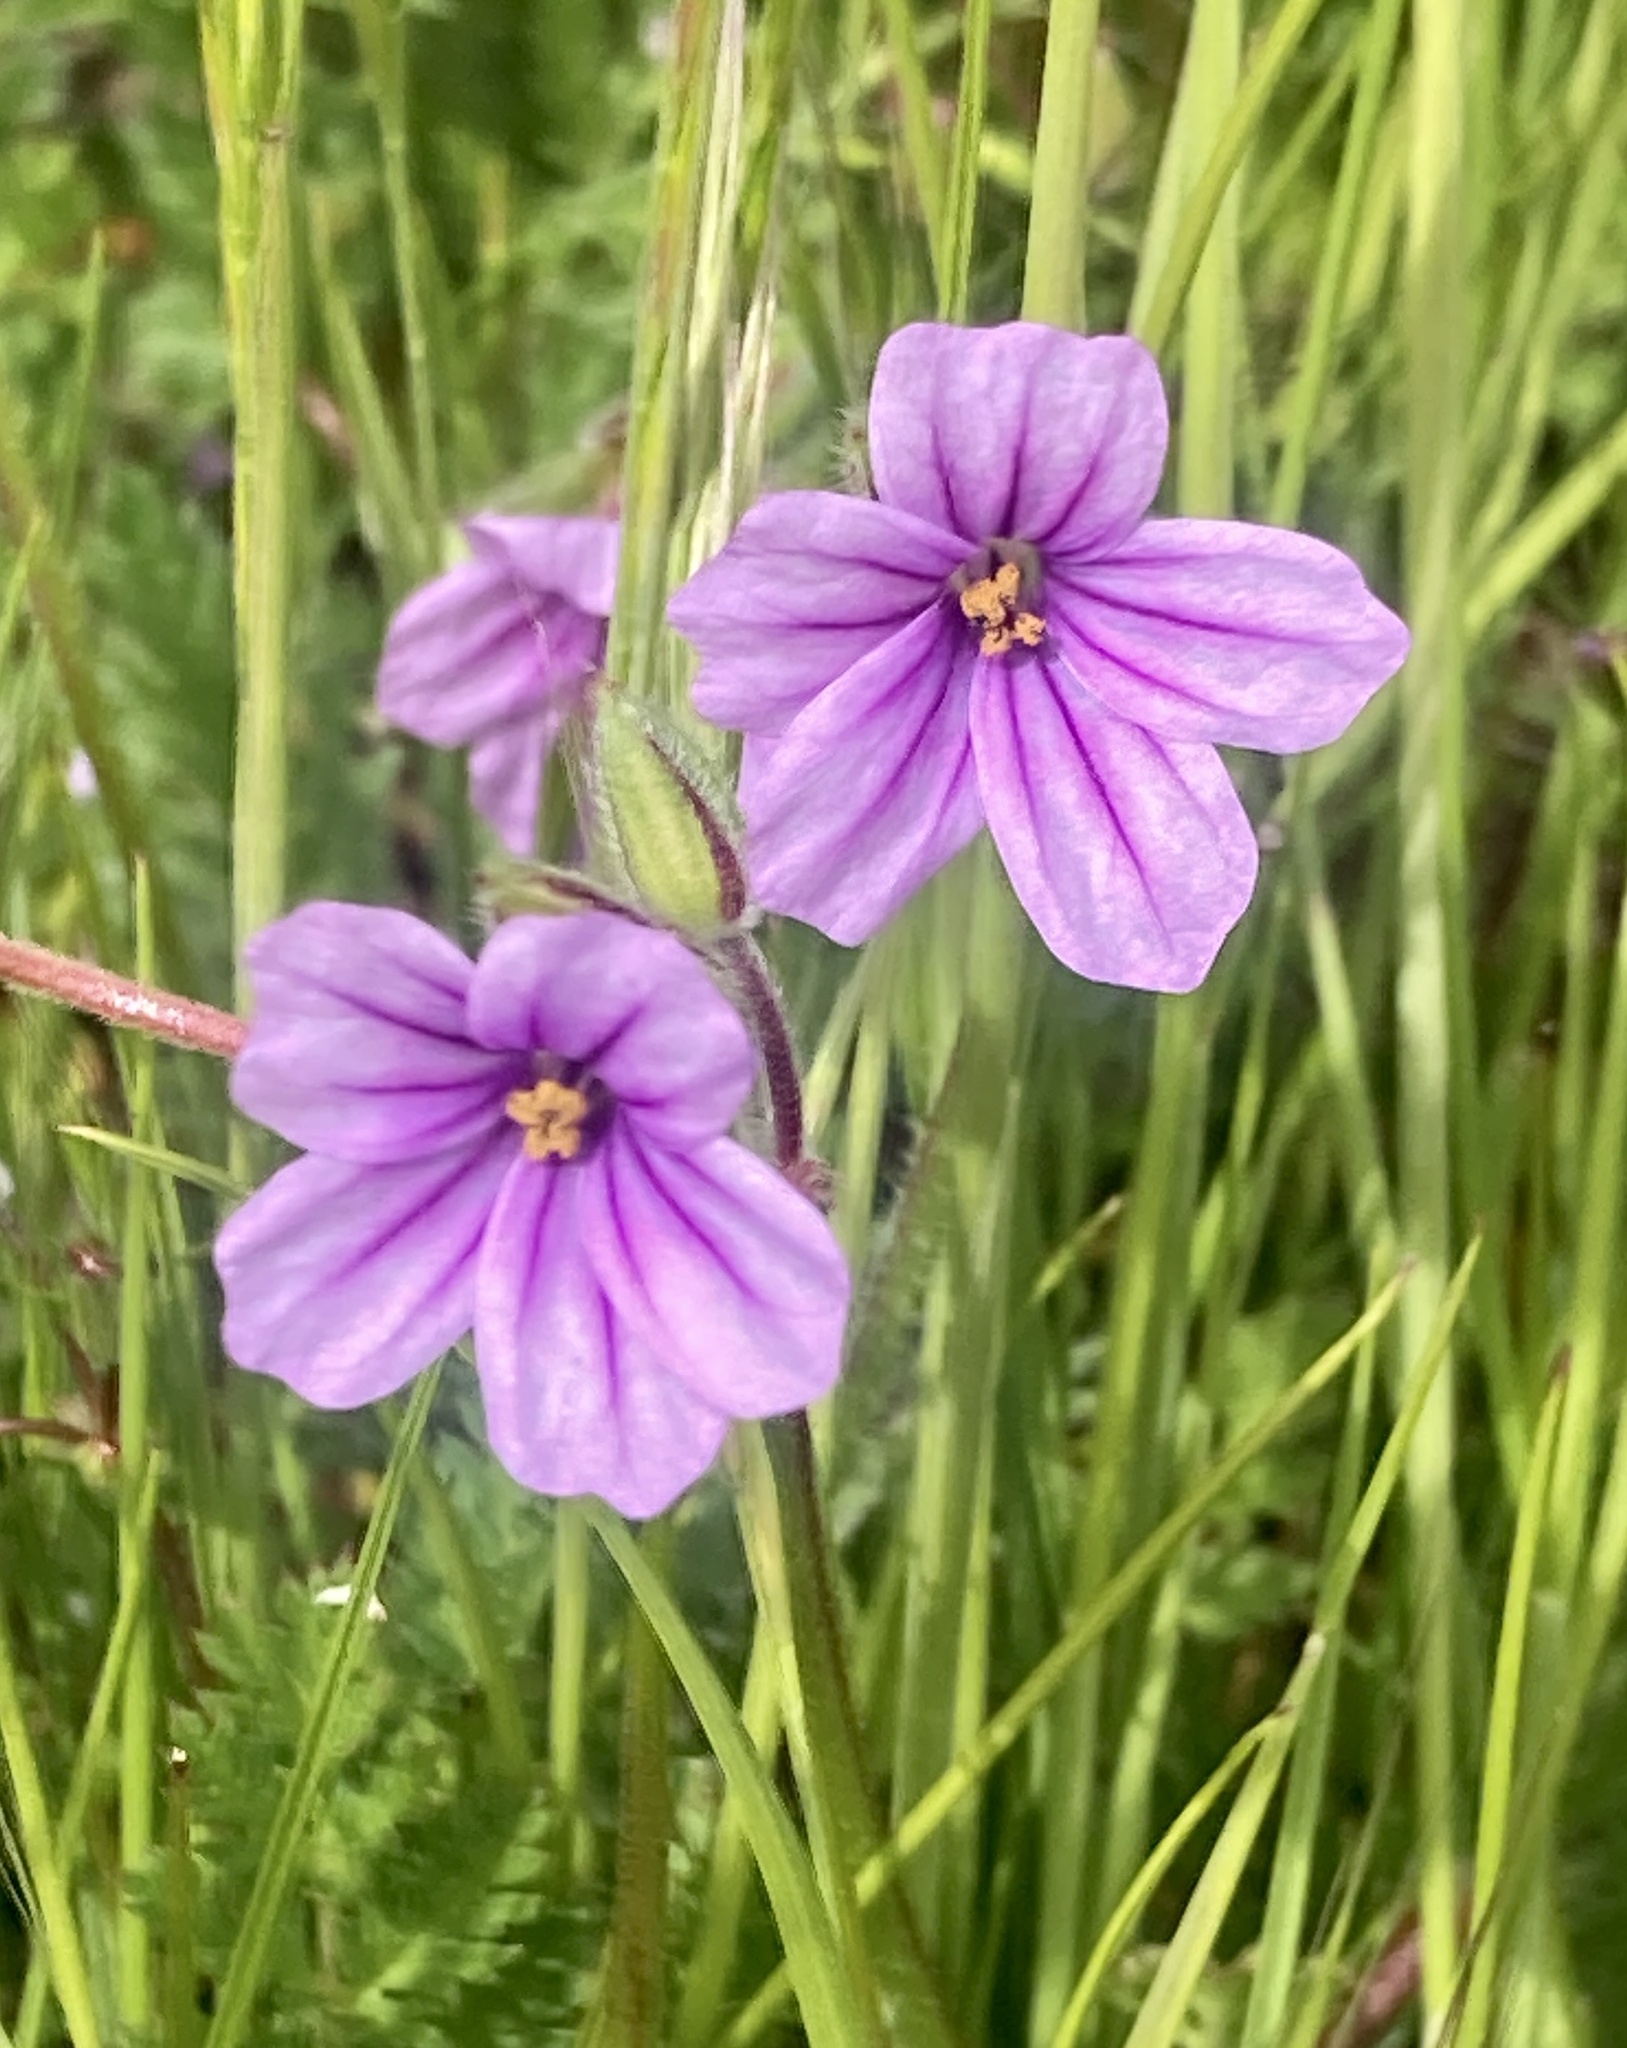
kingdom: Plantae
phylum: Tracheophyta
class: Magnoliopsida
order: Geraniales
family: Geraniaceae
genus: Erodium
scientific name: Erodium botrys
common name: Mediterranean stork's-bill
